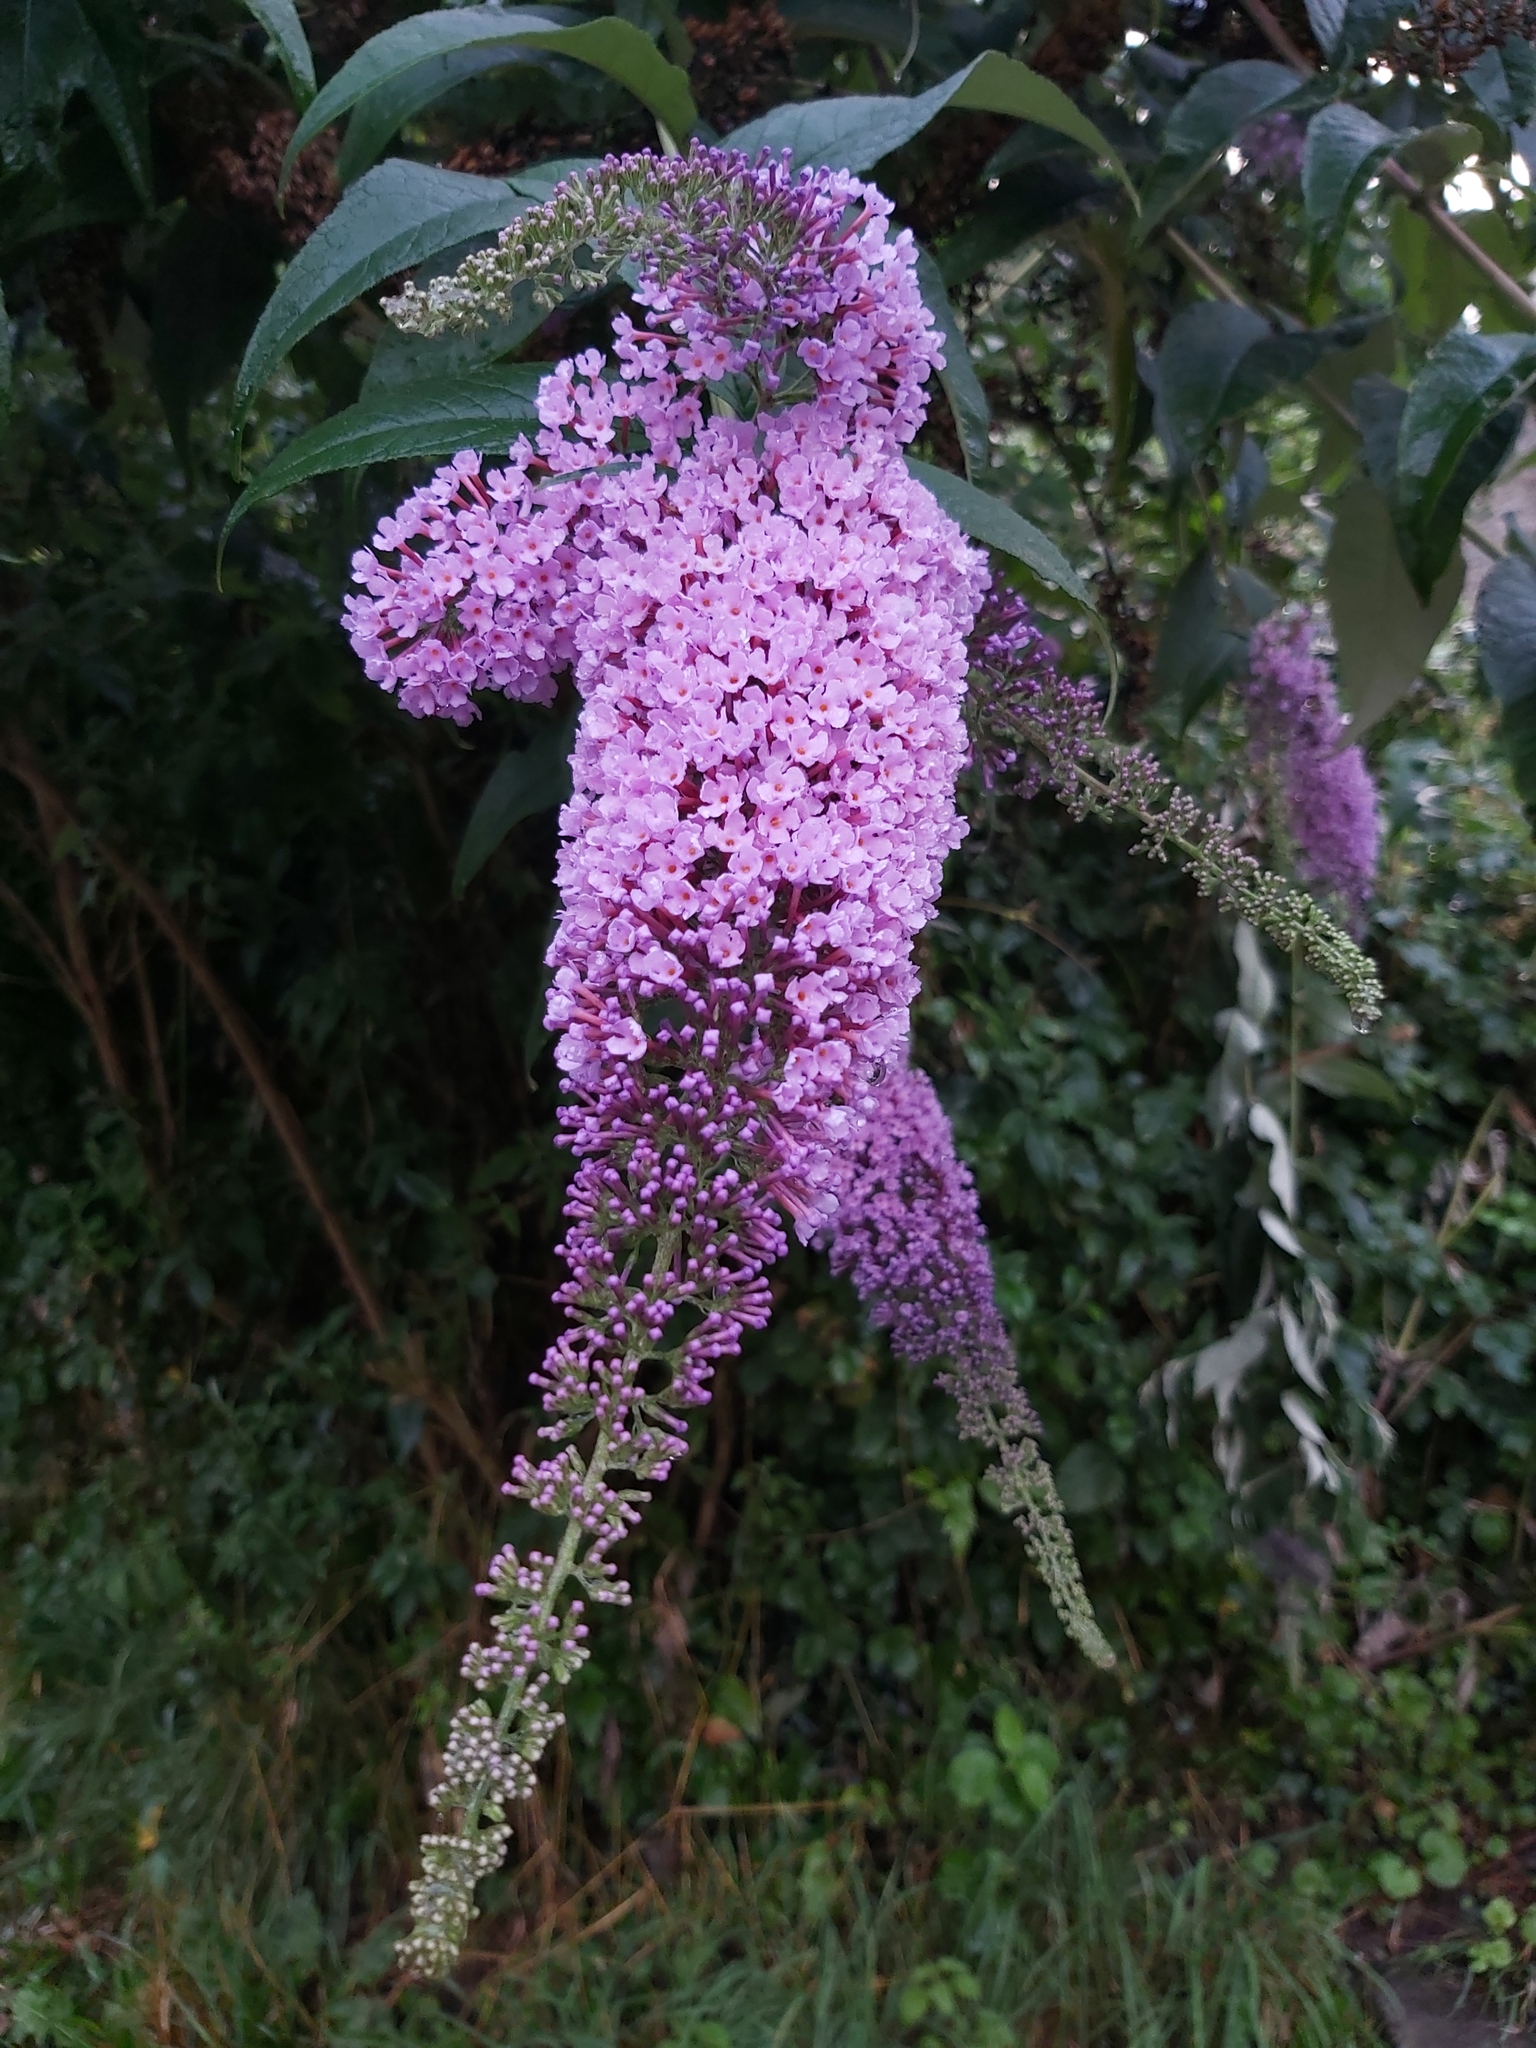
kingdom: Plantae
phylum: Tracheophyta
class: Magnoliopsida
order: Lamiales
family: Scrophulariaceae
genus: Buddleja
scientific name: Buddleja davidii
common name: Butterfly-bush
